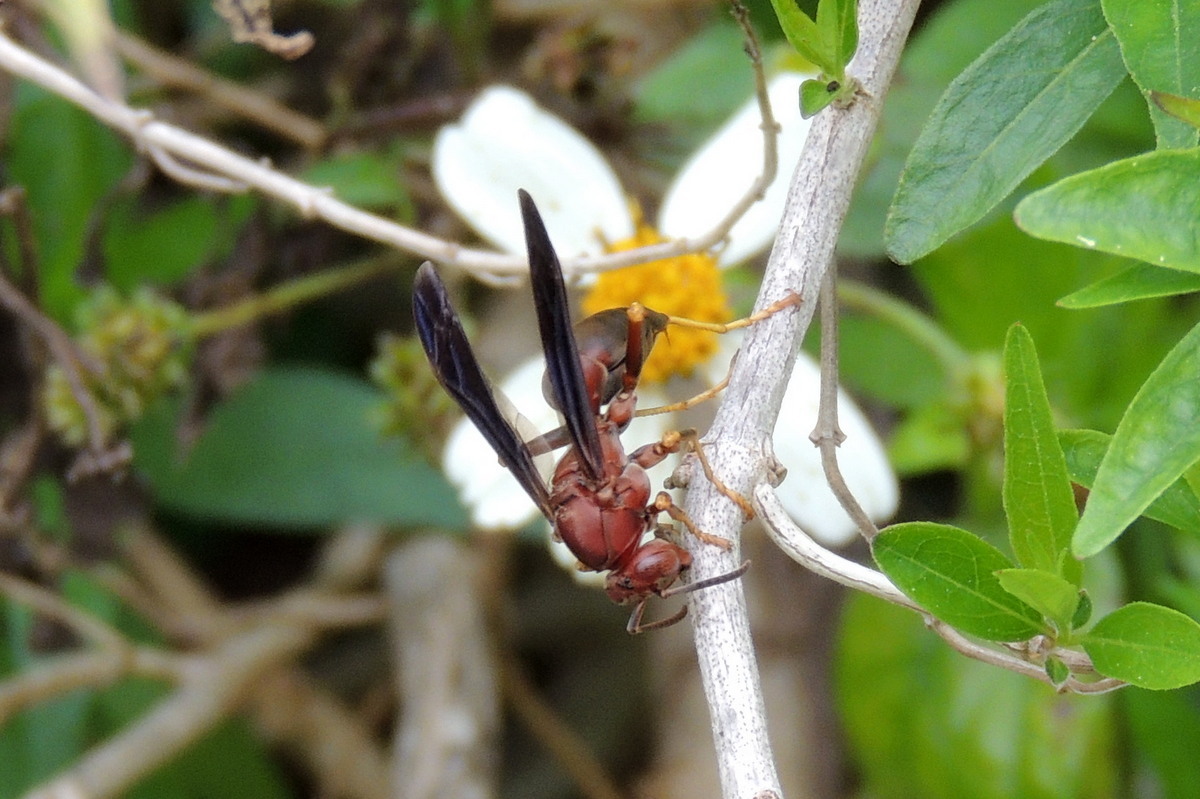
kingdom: Animalia
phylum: Arthropoda
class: Insecta
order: Hymenoptera
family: Eumenidae
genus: Polistes
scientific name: Polistes metricus
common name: Metric paper wasp
